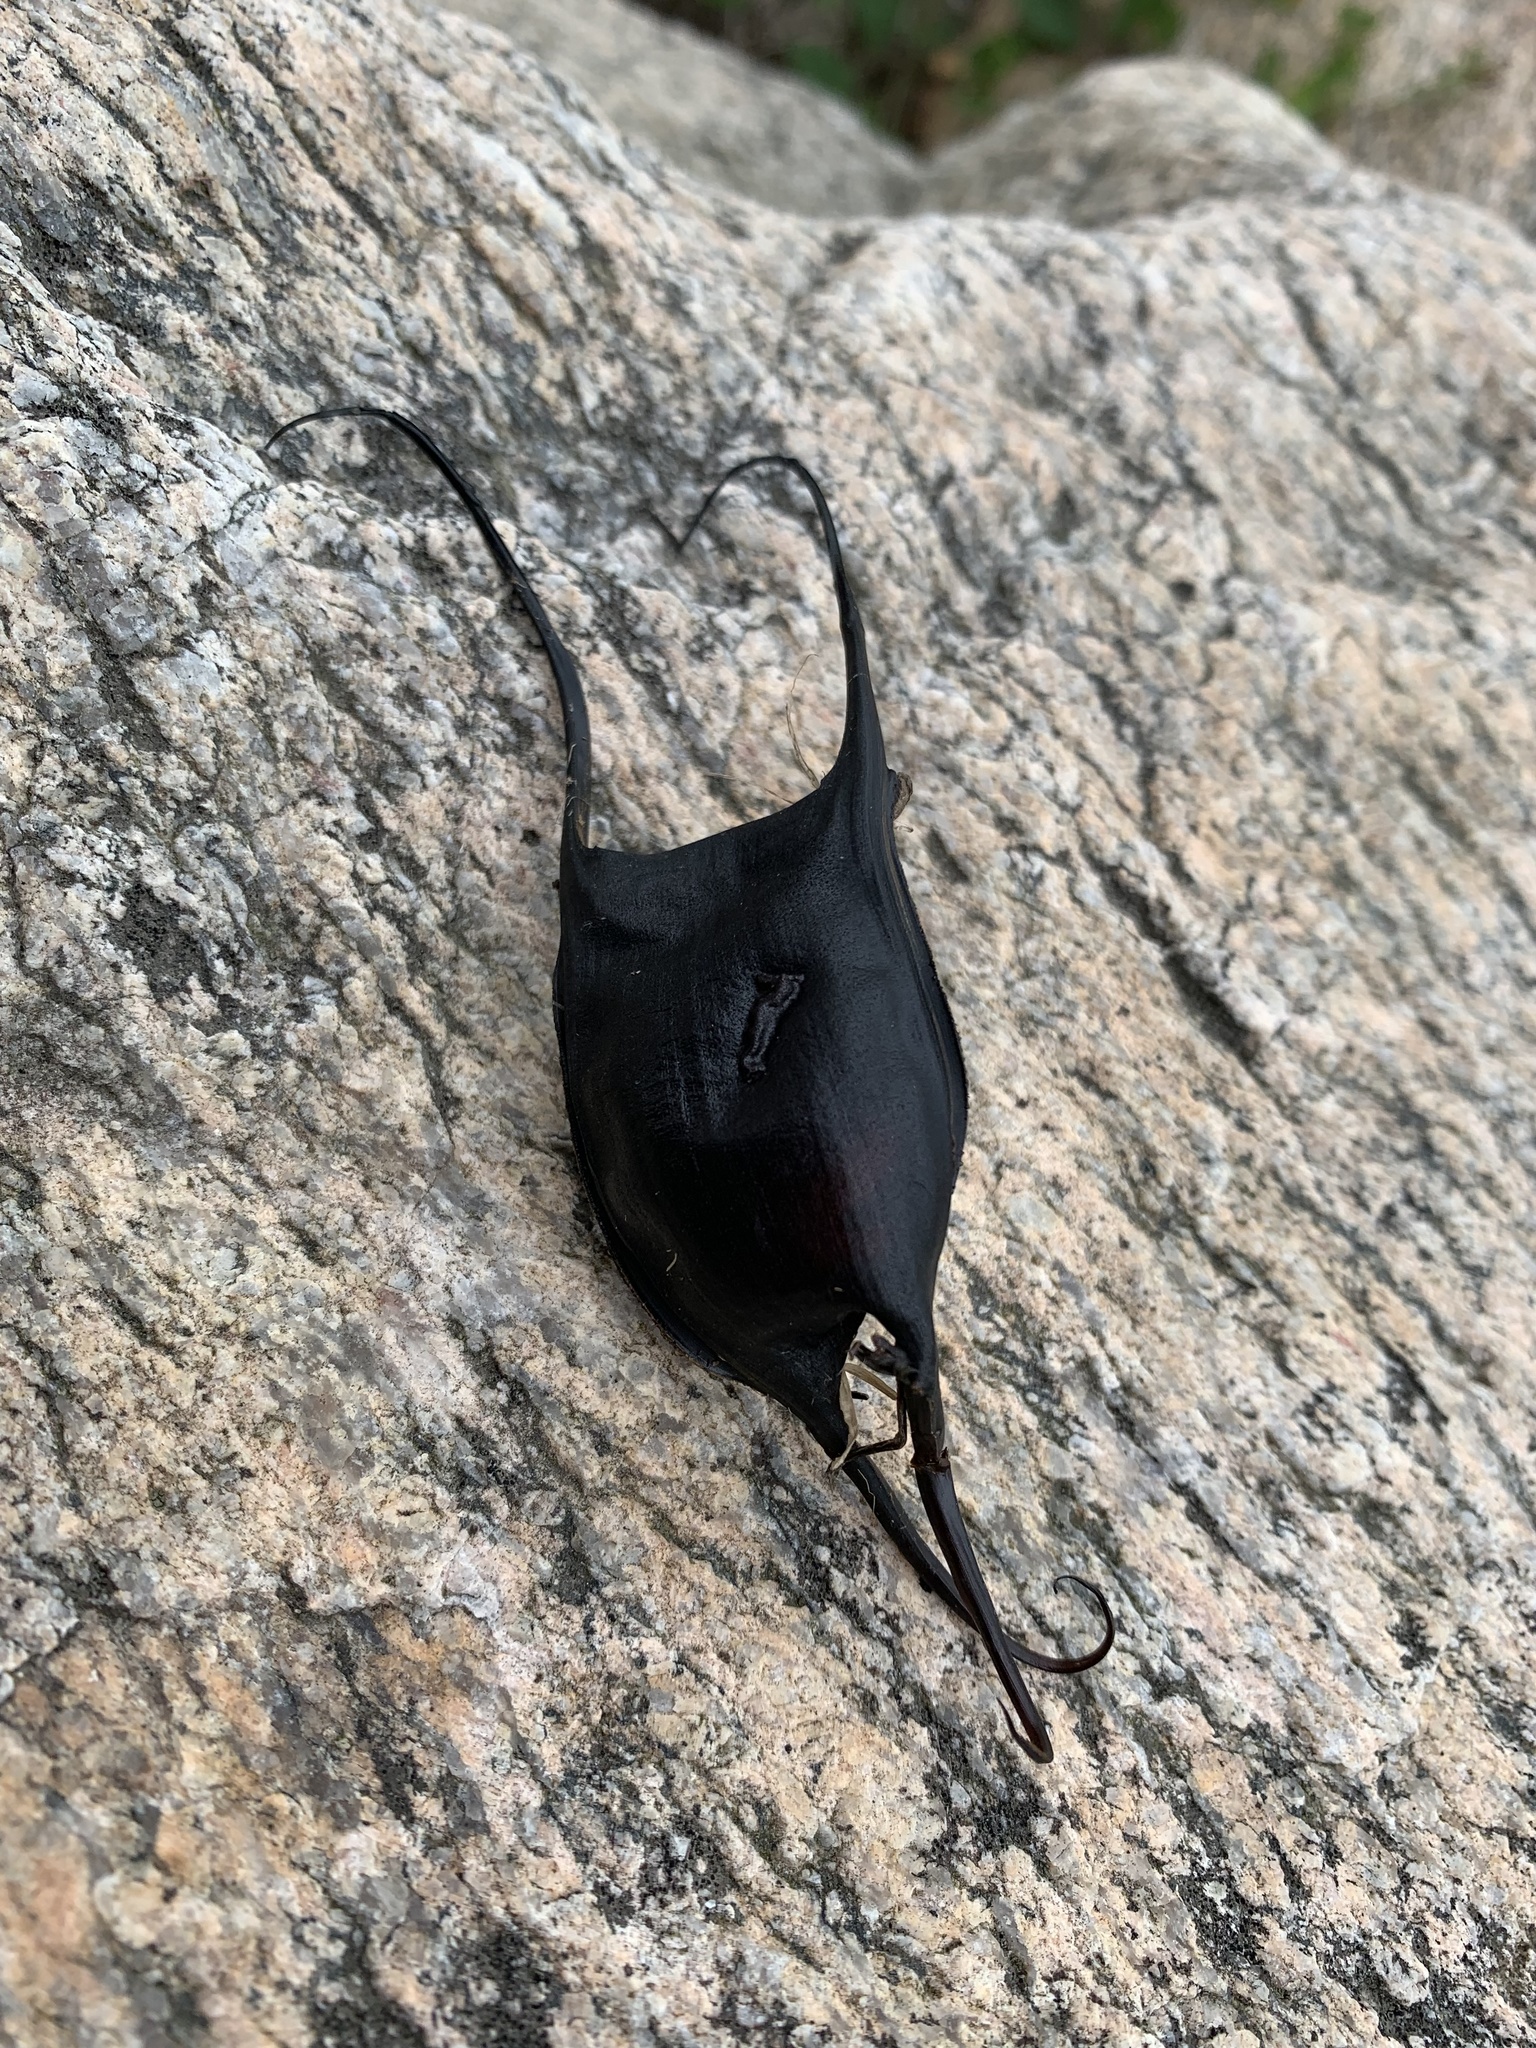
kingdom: Animalia
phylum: Chordata
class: Elasmobranchii
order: Rajiformes
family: Rajidae
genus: Leucoraja
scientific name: Leucoraja garmani
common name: Rosette skate
